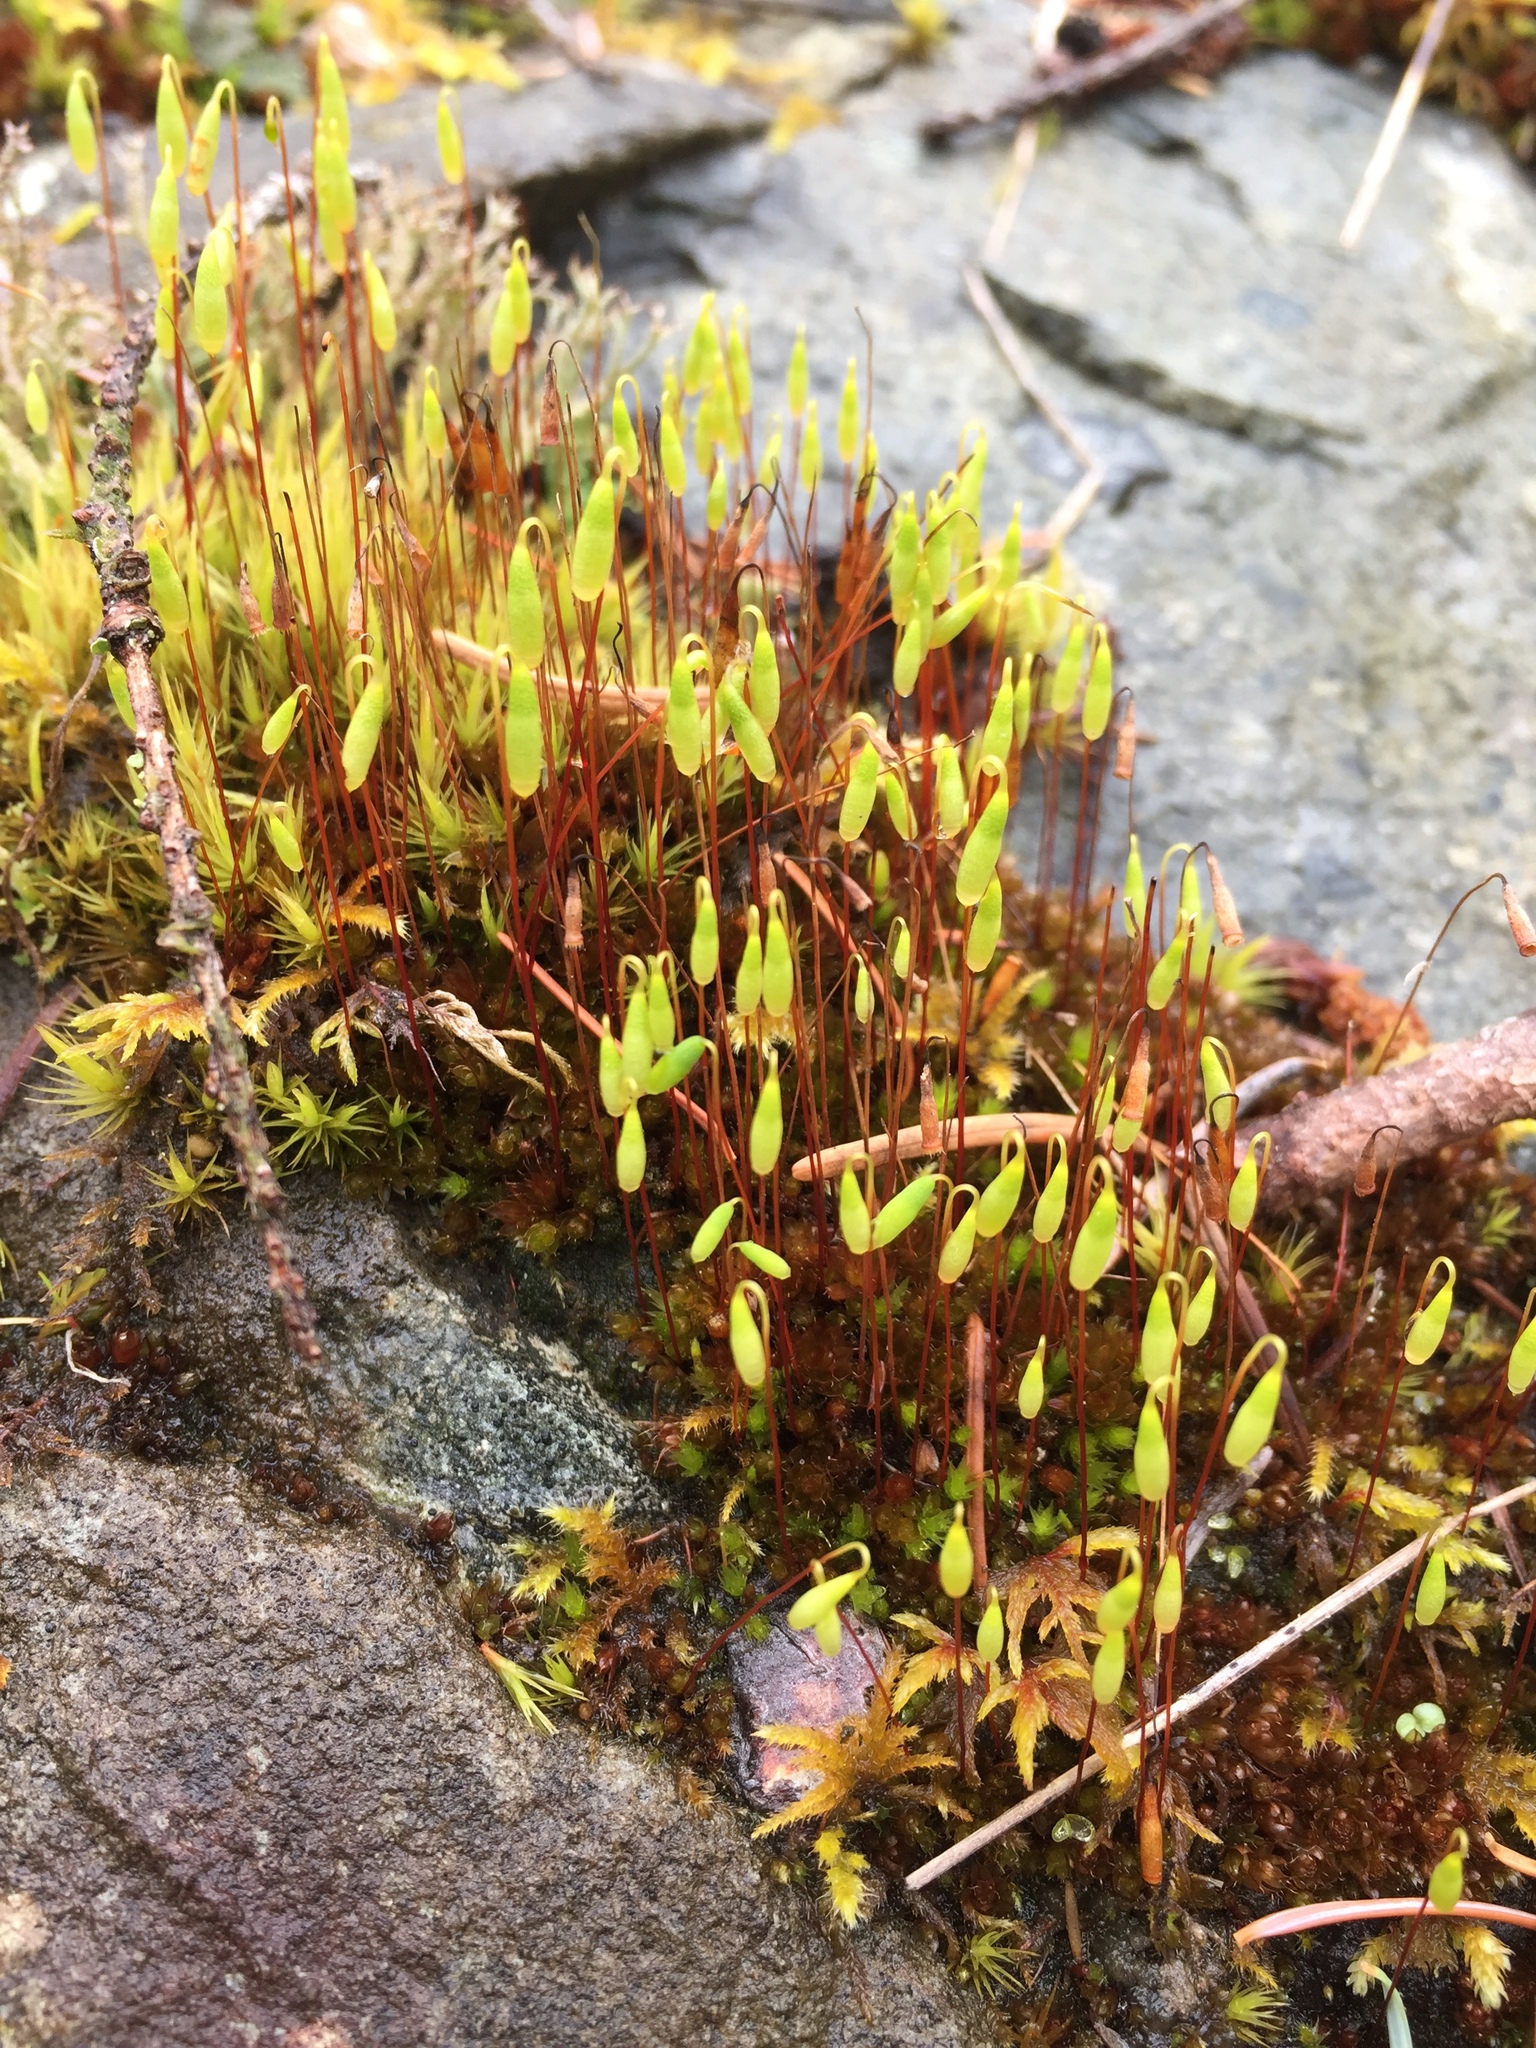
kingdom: Plantae
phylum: Bryophyta
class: Bryopsida
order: Bryales
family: Bryaceae
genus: Rosulabryum
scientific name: Rosulabryum capillare
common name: Capillary thread-moss
